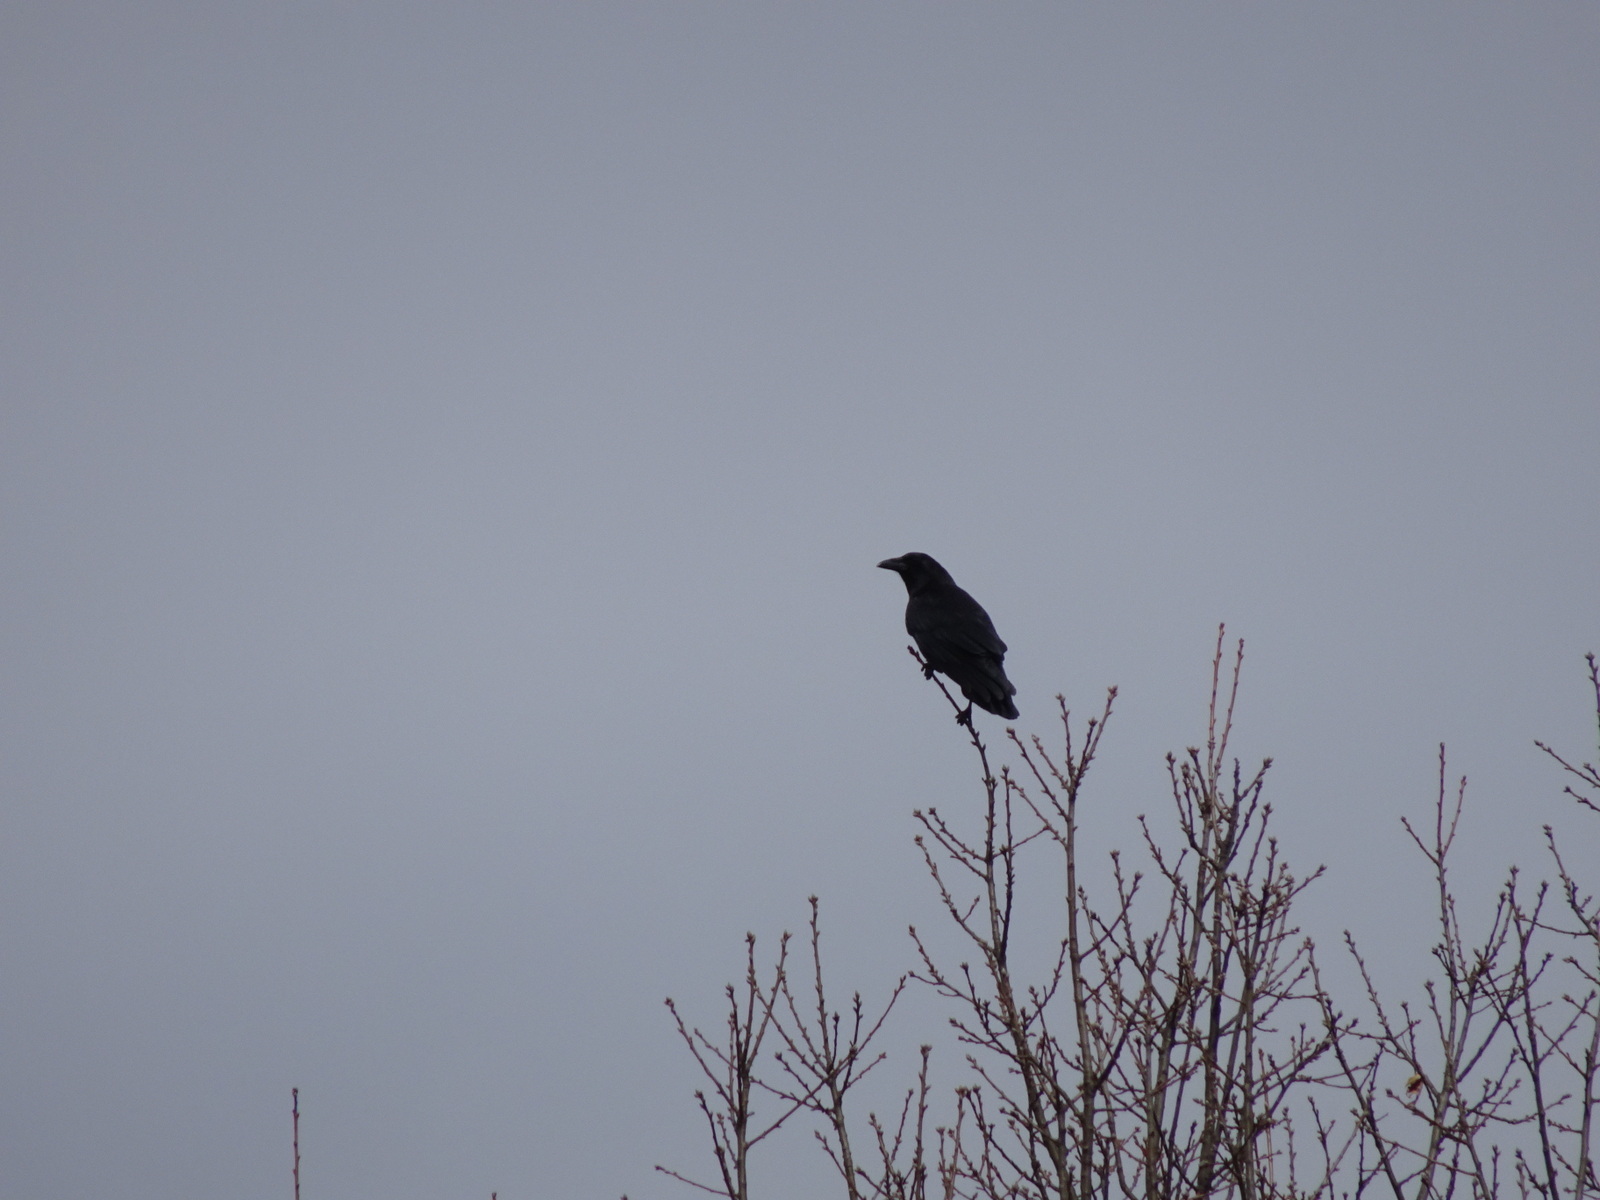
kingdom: Animalia
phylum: Chordata
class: Aves
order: Passeriformes
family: Corvidae
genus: Corvus
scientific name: Corvus brachyrhynchos
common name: American crow
